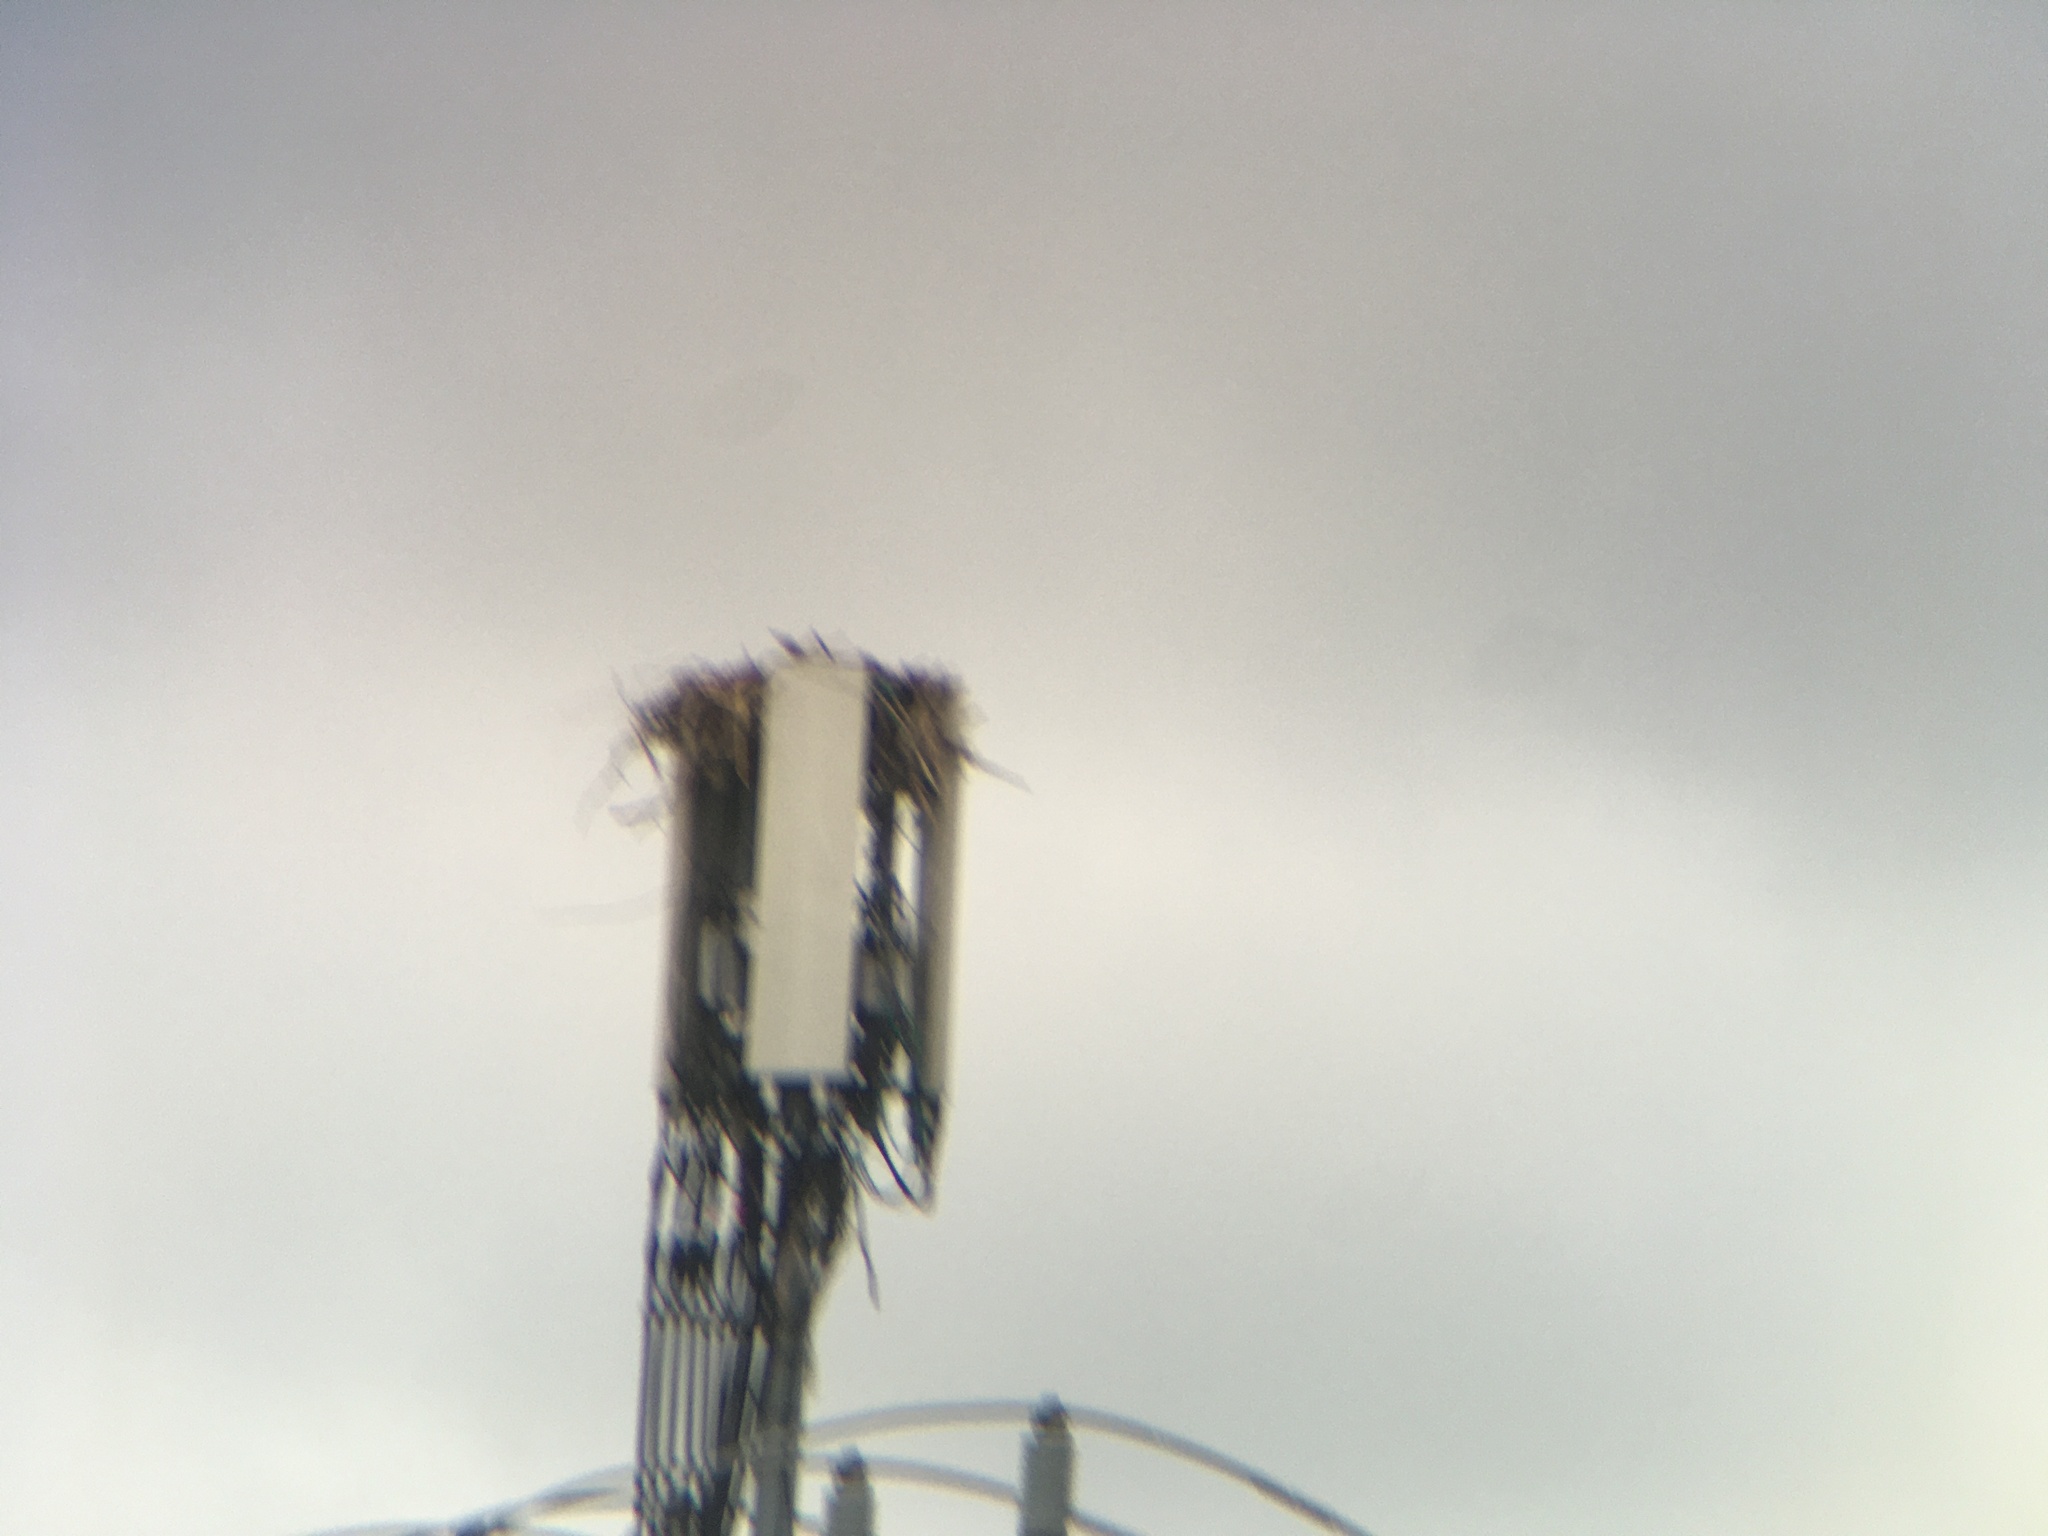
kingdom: Animalia
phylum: Chordata
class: Aves
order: Accipitriformes
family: Pandionidae
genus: Pandion
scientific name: Pandion haliaetus
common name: Osprey
